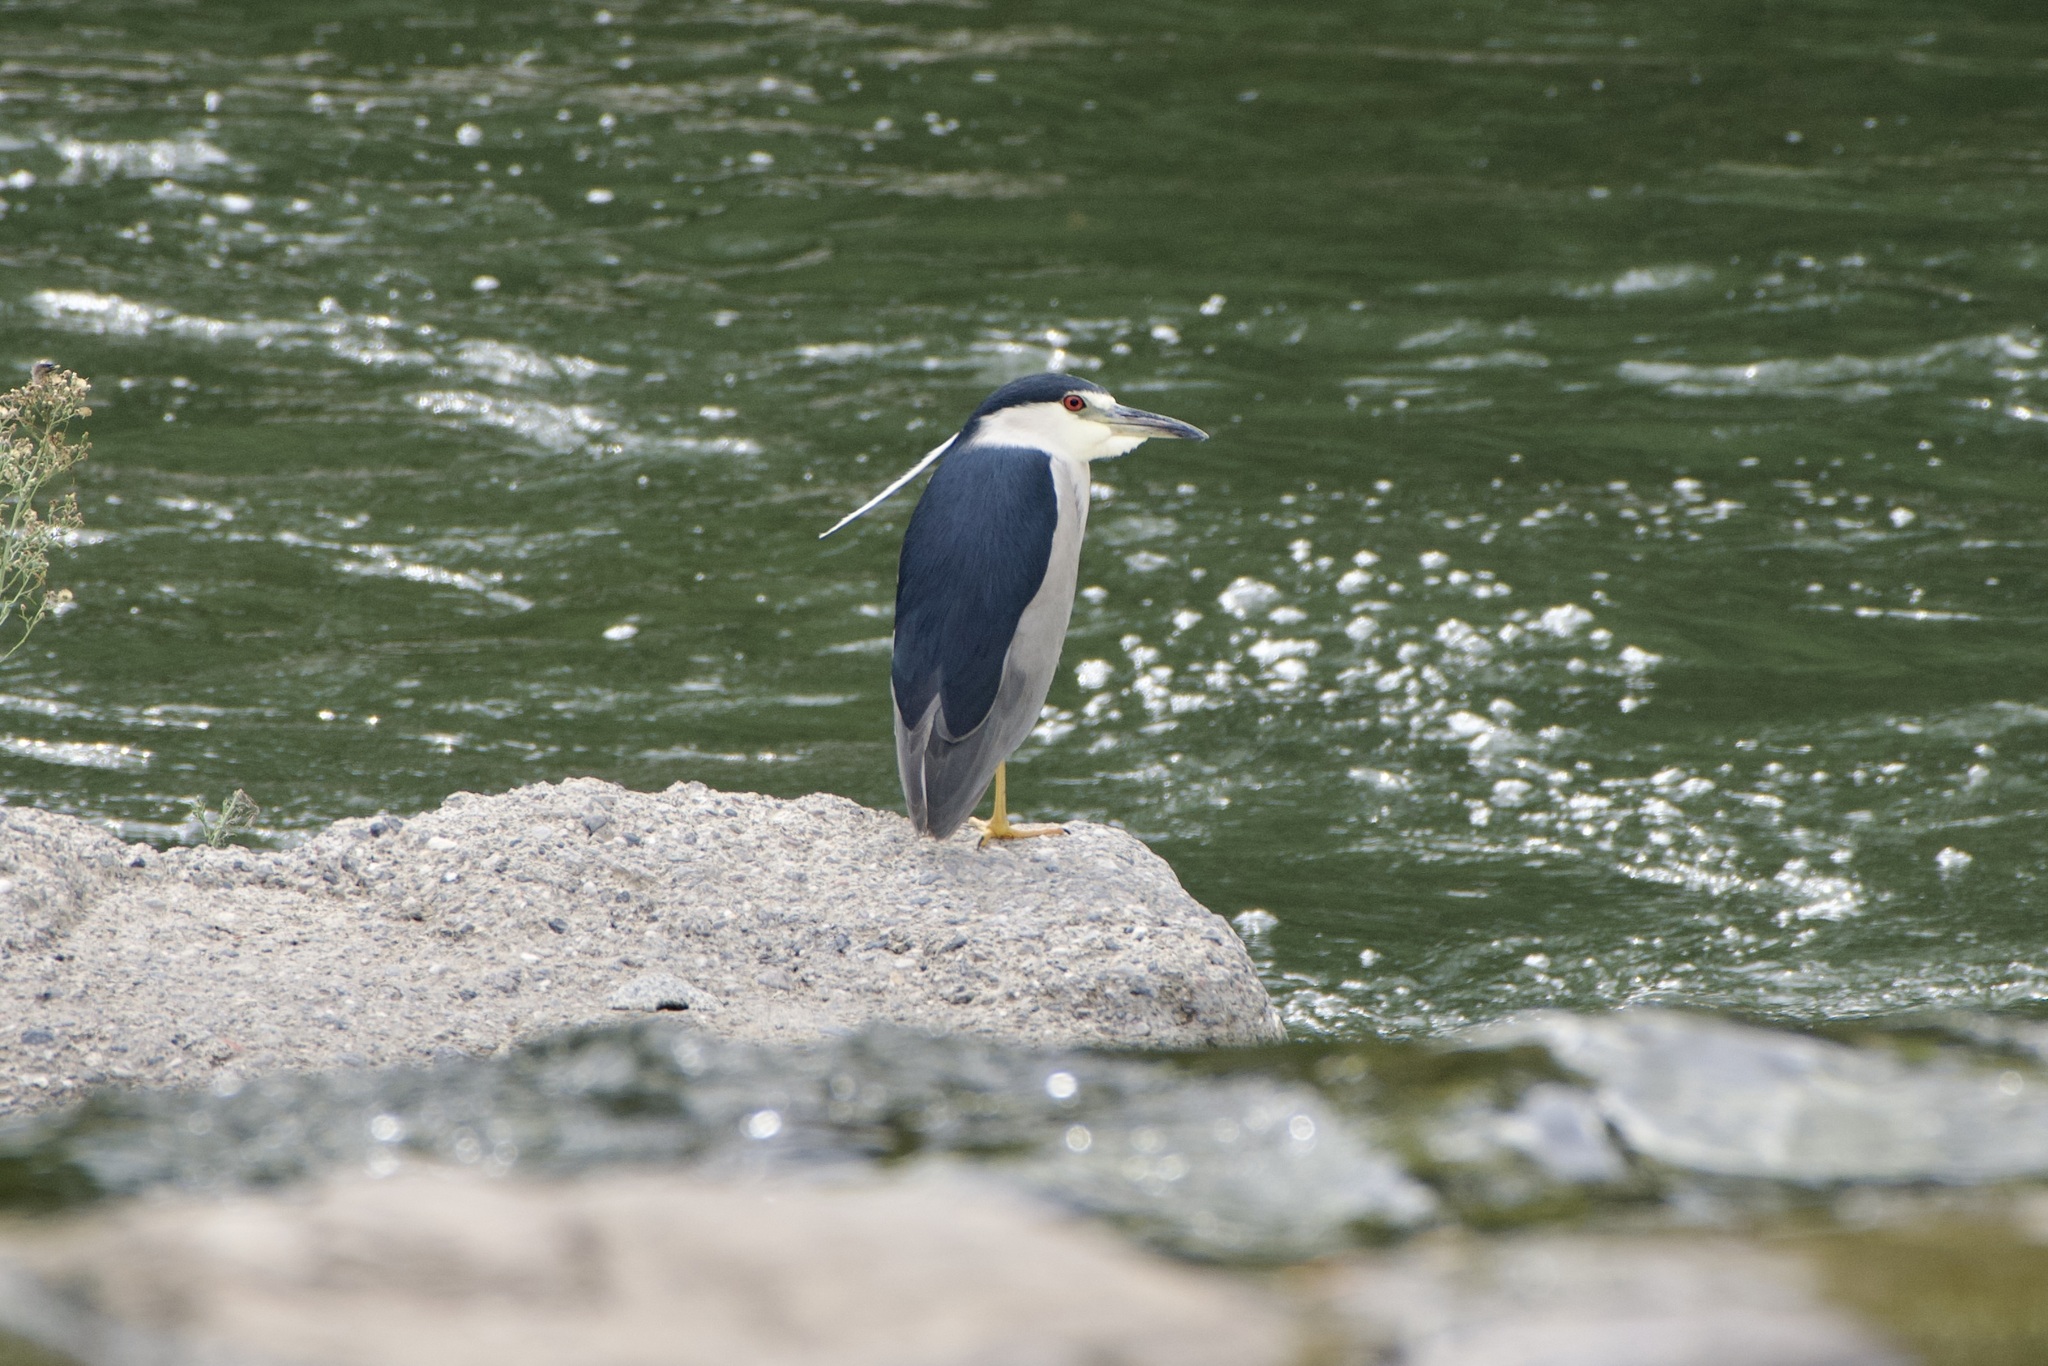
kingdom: Animalia
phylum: Chordata
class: Aves
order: Pelecaniformes
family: Ardeidae
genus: Nycticorax
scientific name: Nycticorax nycticorax
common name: Black-crowned night heron
